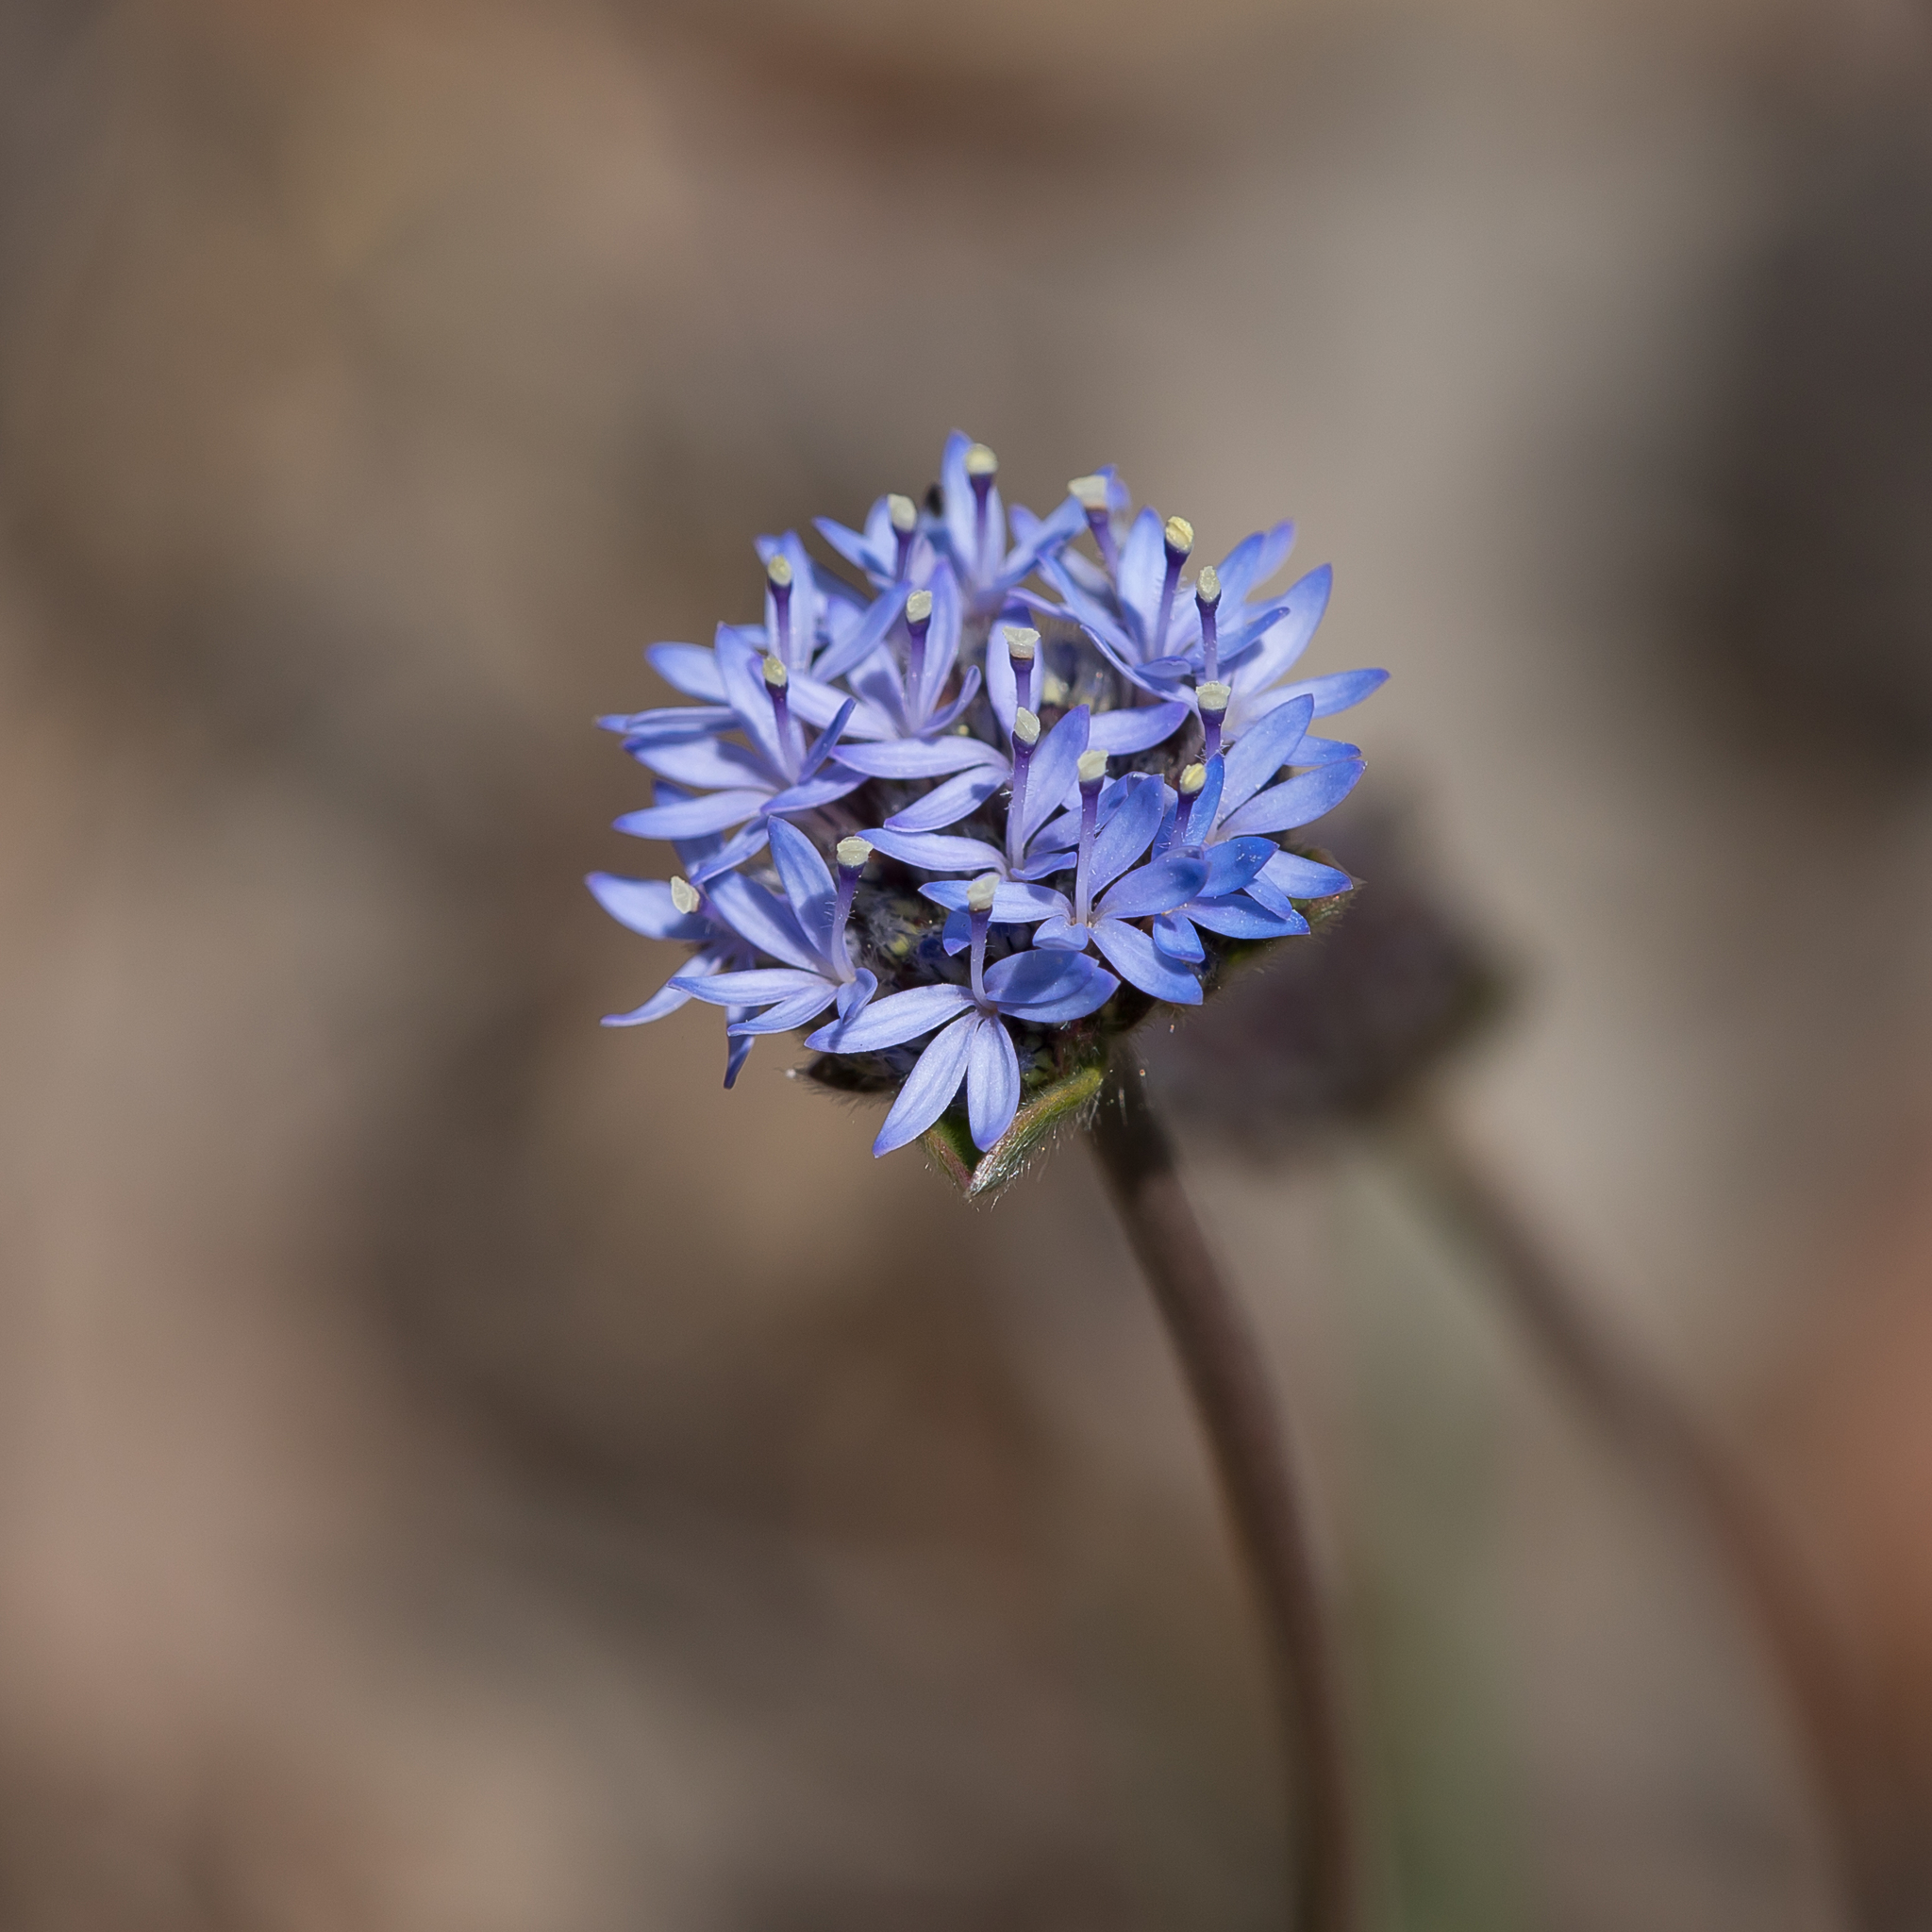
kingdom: Plantae
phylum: Tracheophyta
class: Magnoliopsida
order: Asterales
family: Goodeniaceae
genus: Brunonia
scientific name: Brunonia australis
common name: Blue pincushion
